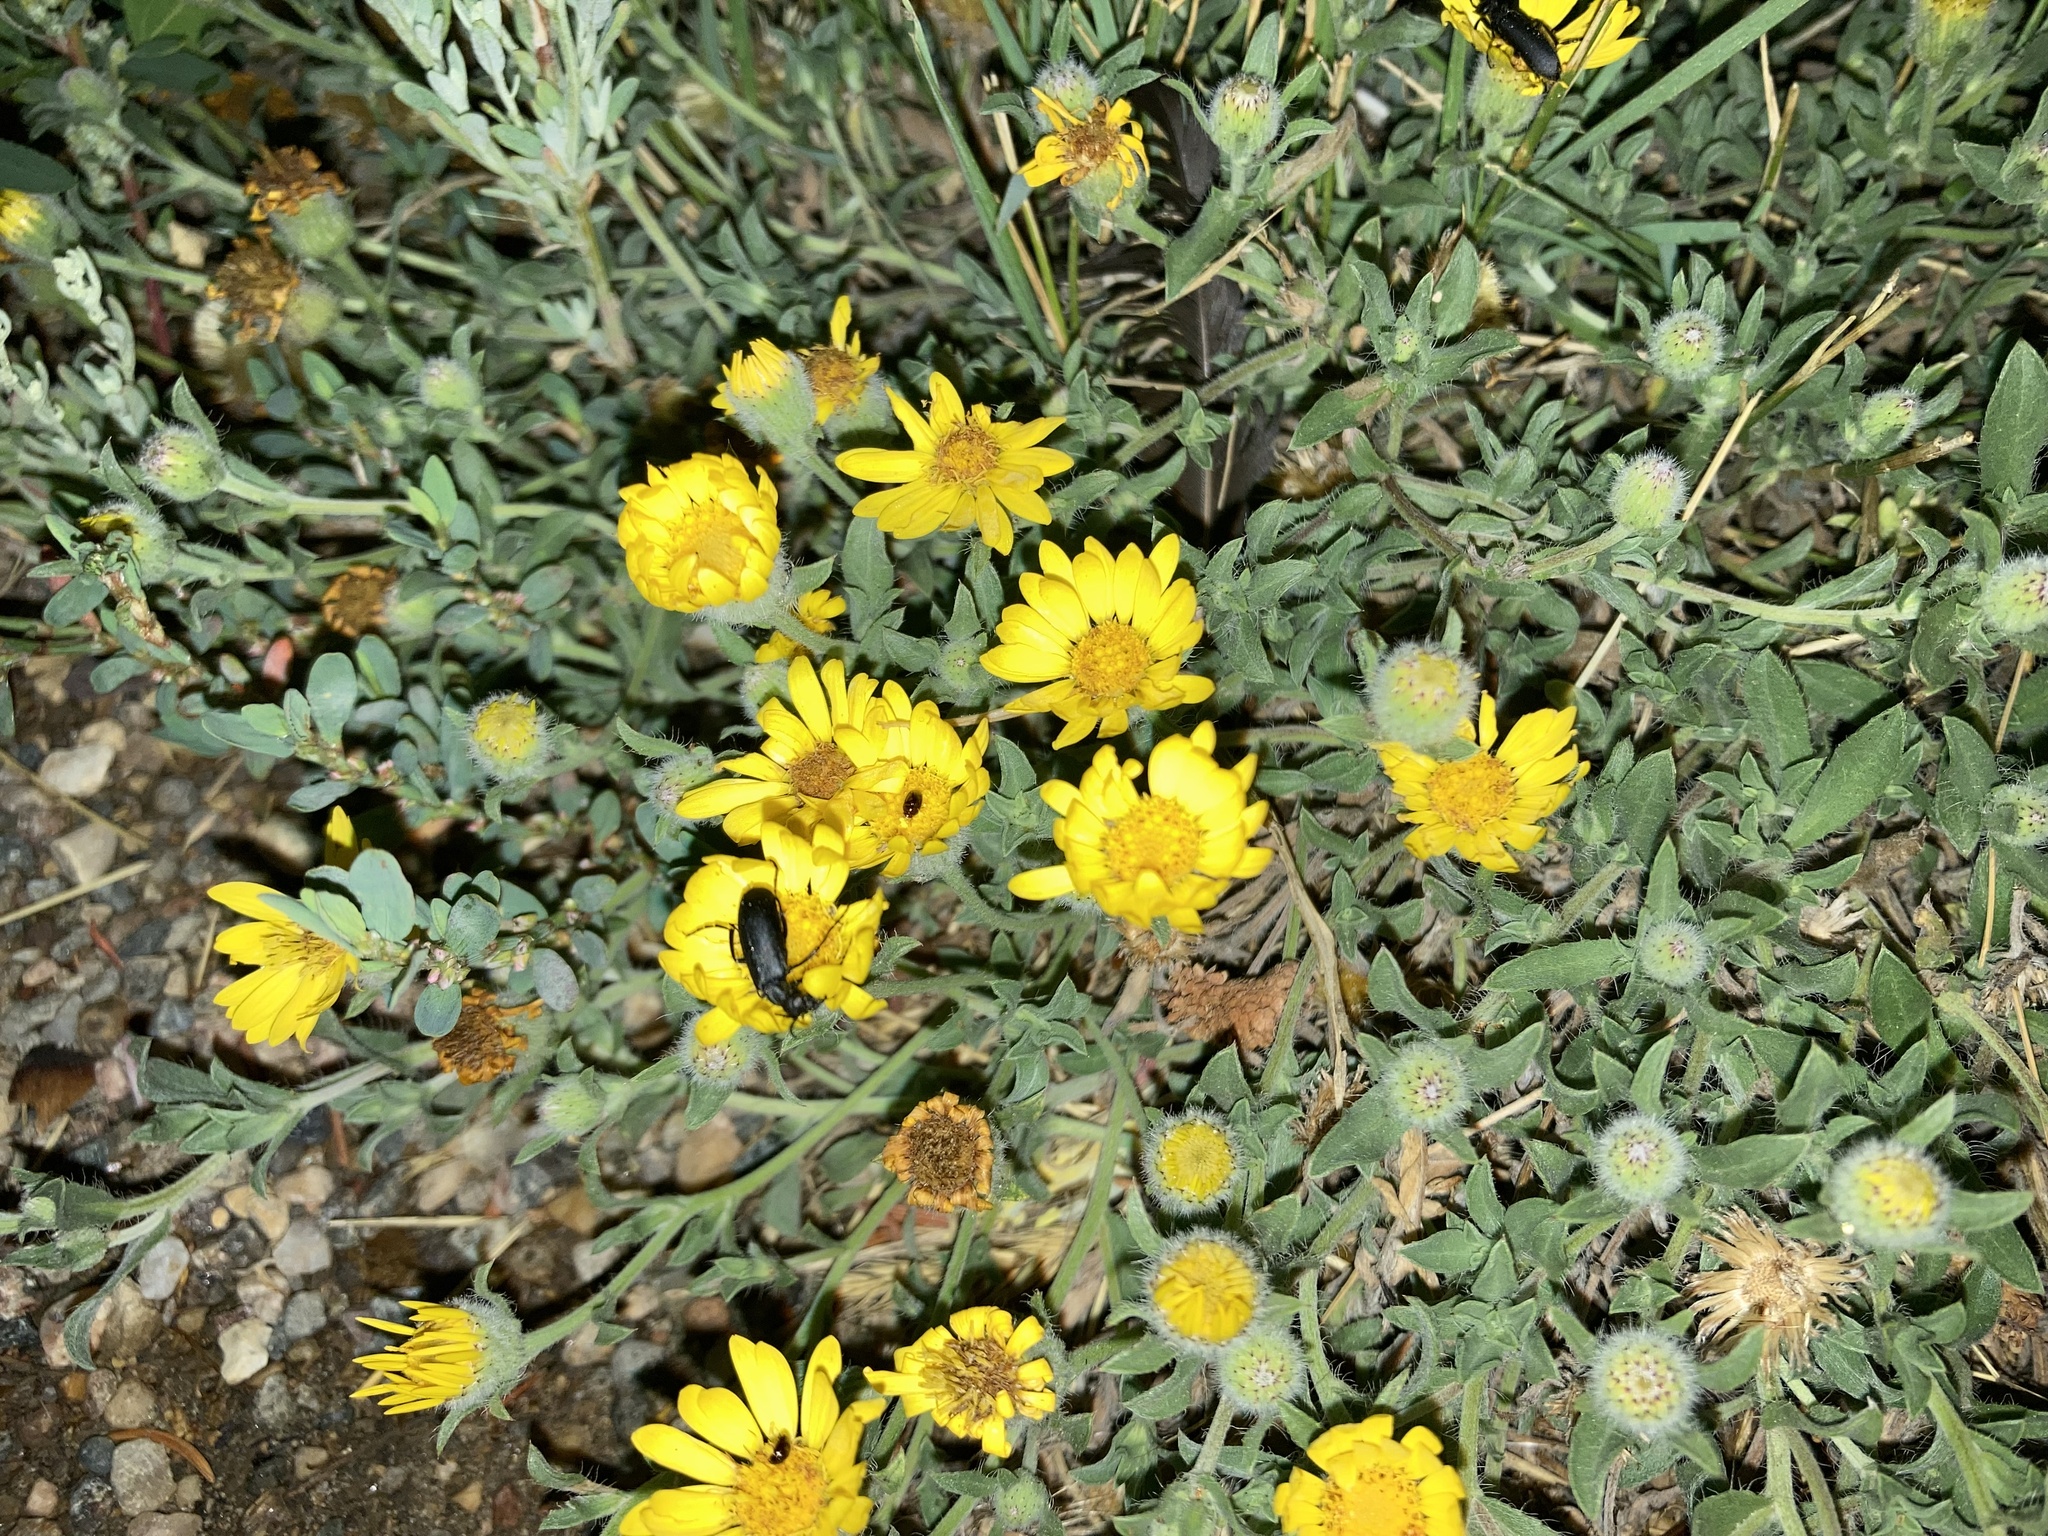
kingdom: Plantae
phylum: Tracheophyta
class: Magnoliopsida
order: Asterales
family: Asteraceae
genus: Heterotheca
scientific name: Heterotheca villosa
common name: Hairy false goldenaster
